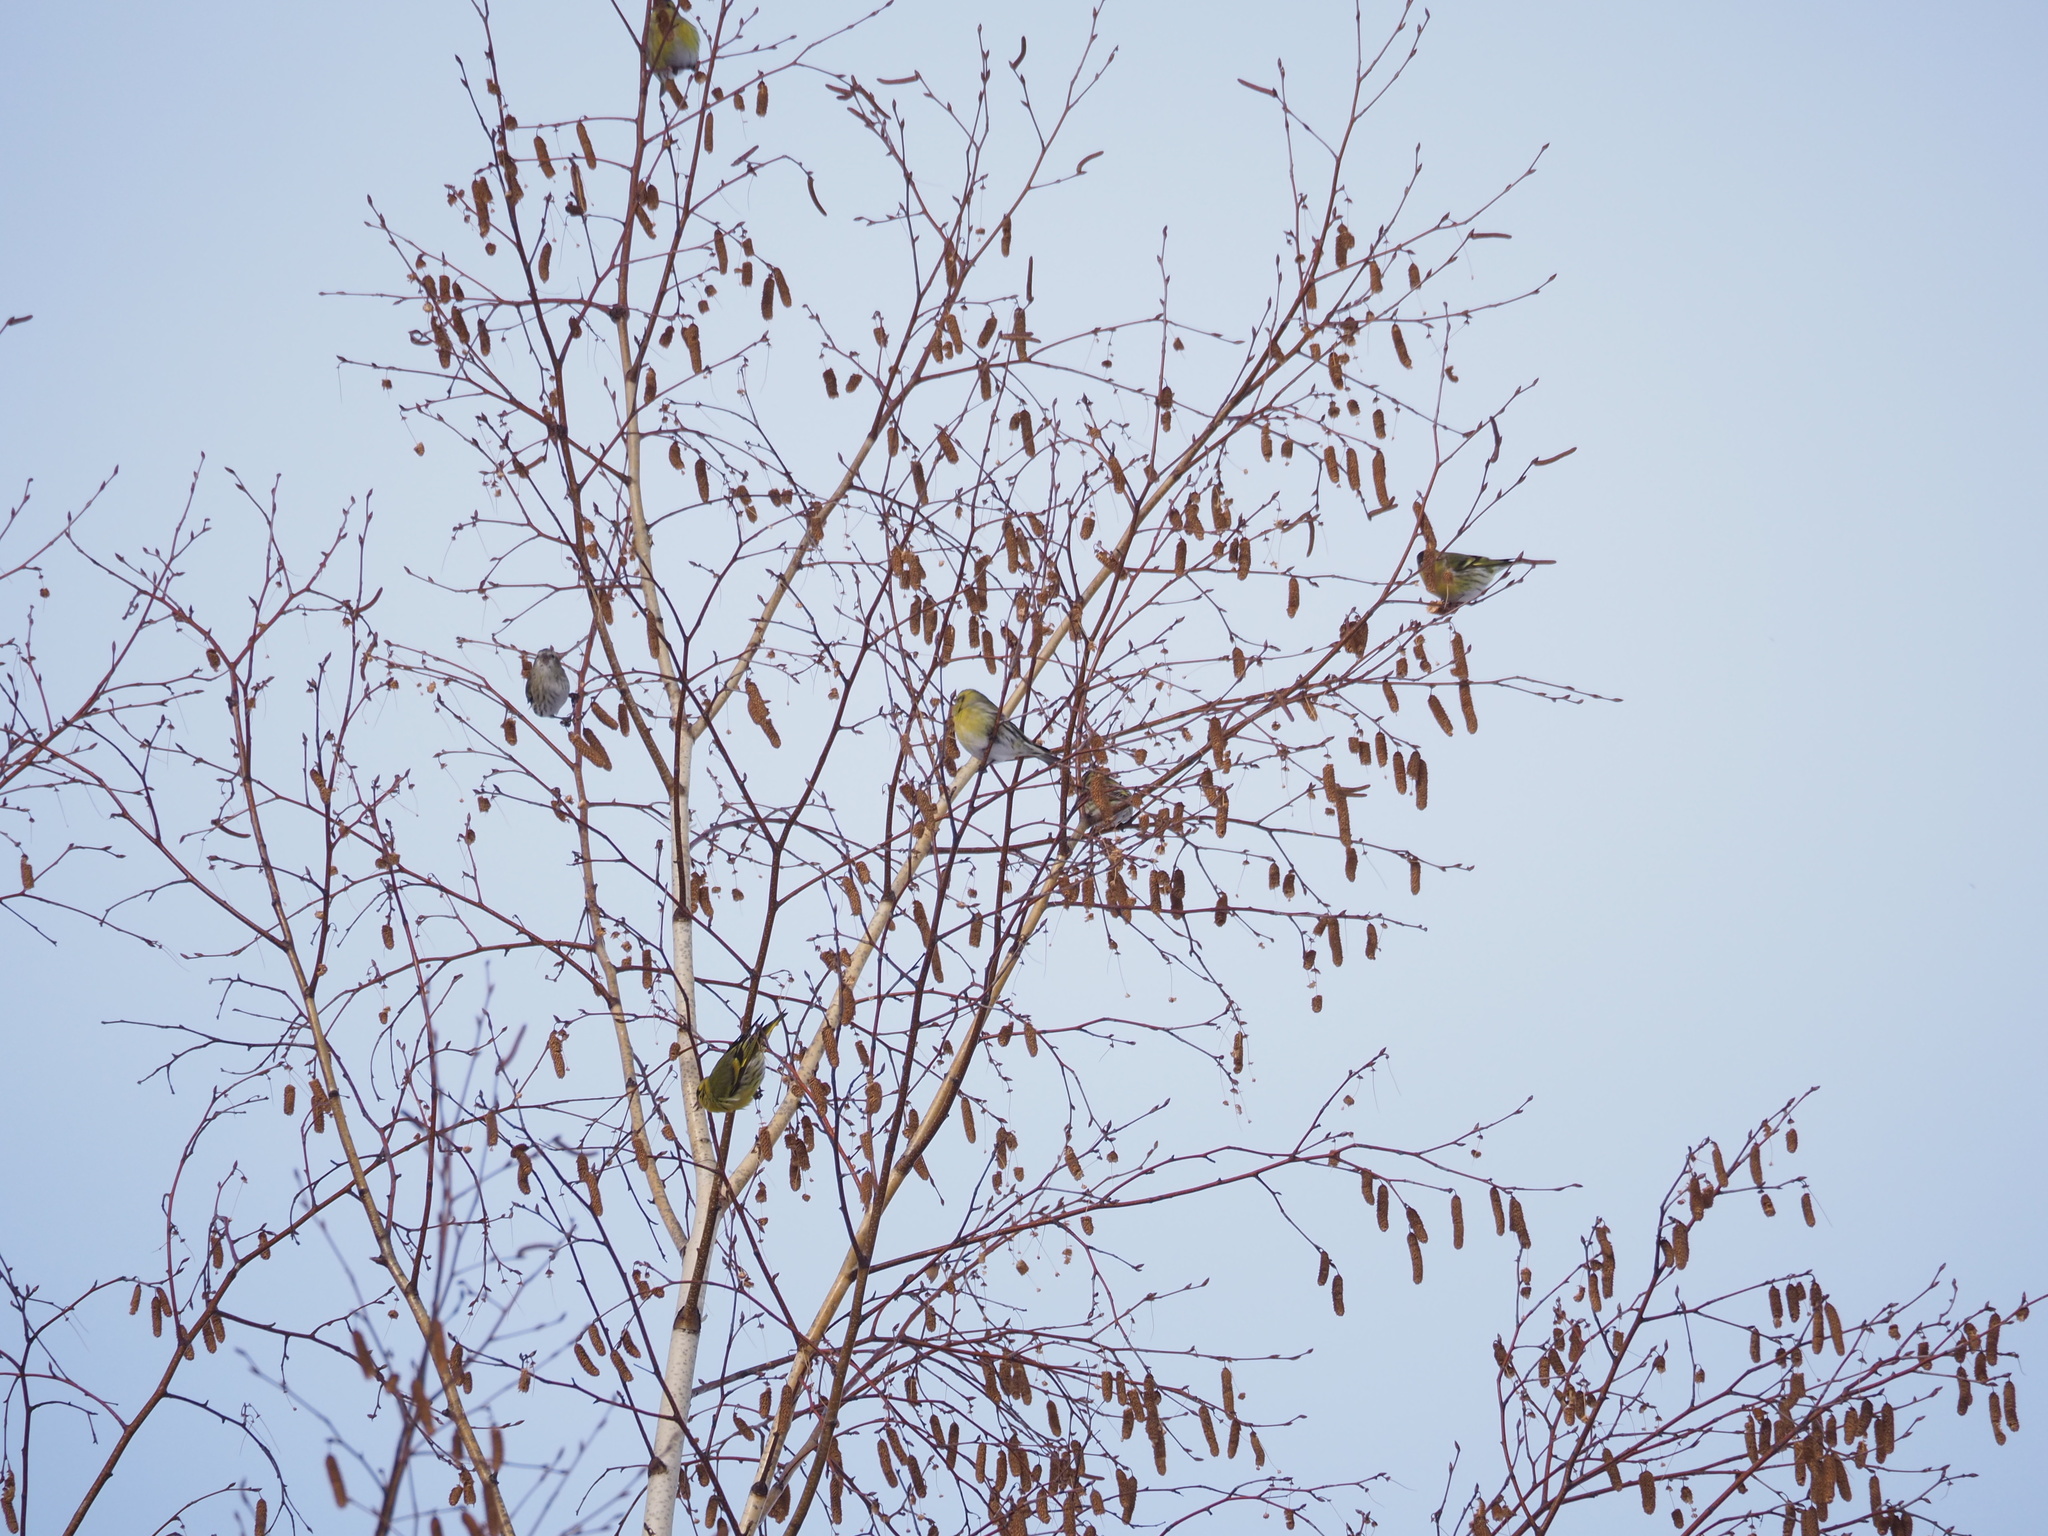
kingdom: Animalia
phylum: Chordata
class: Aves
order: Passeriformes
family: Fringillidae
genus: Spinus
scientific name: Spinus spinus
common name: Eurasian siskin
